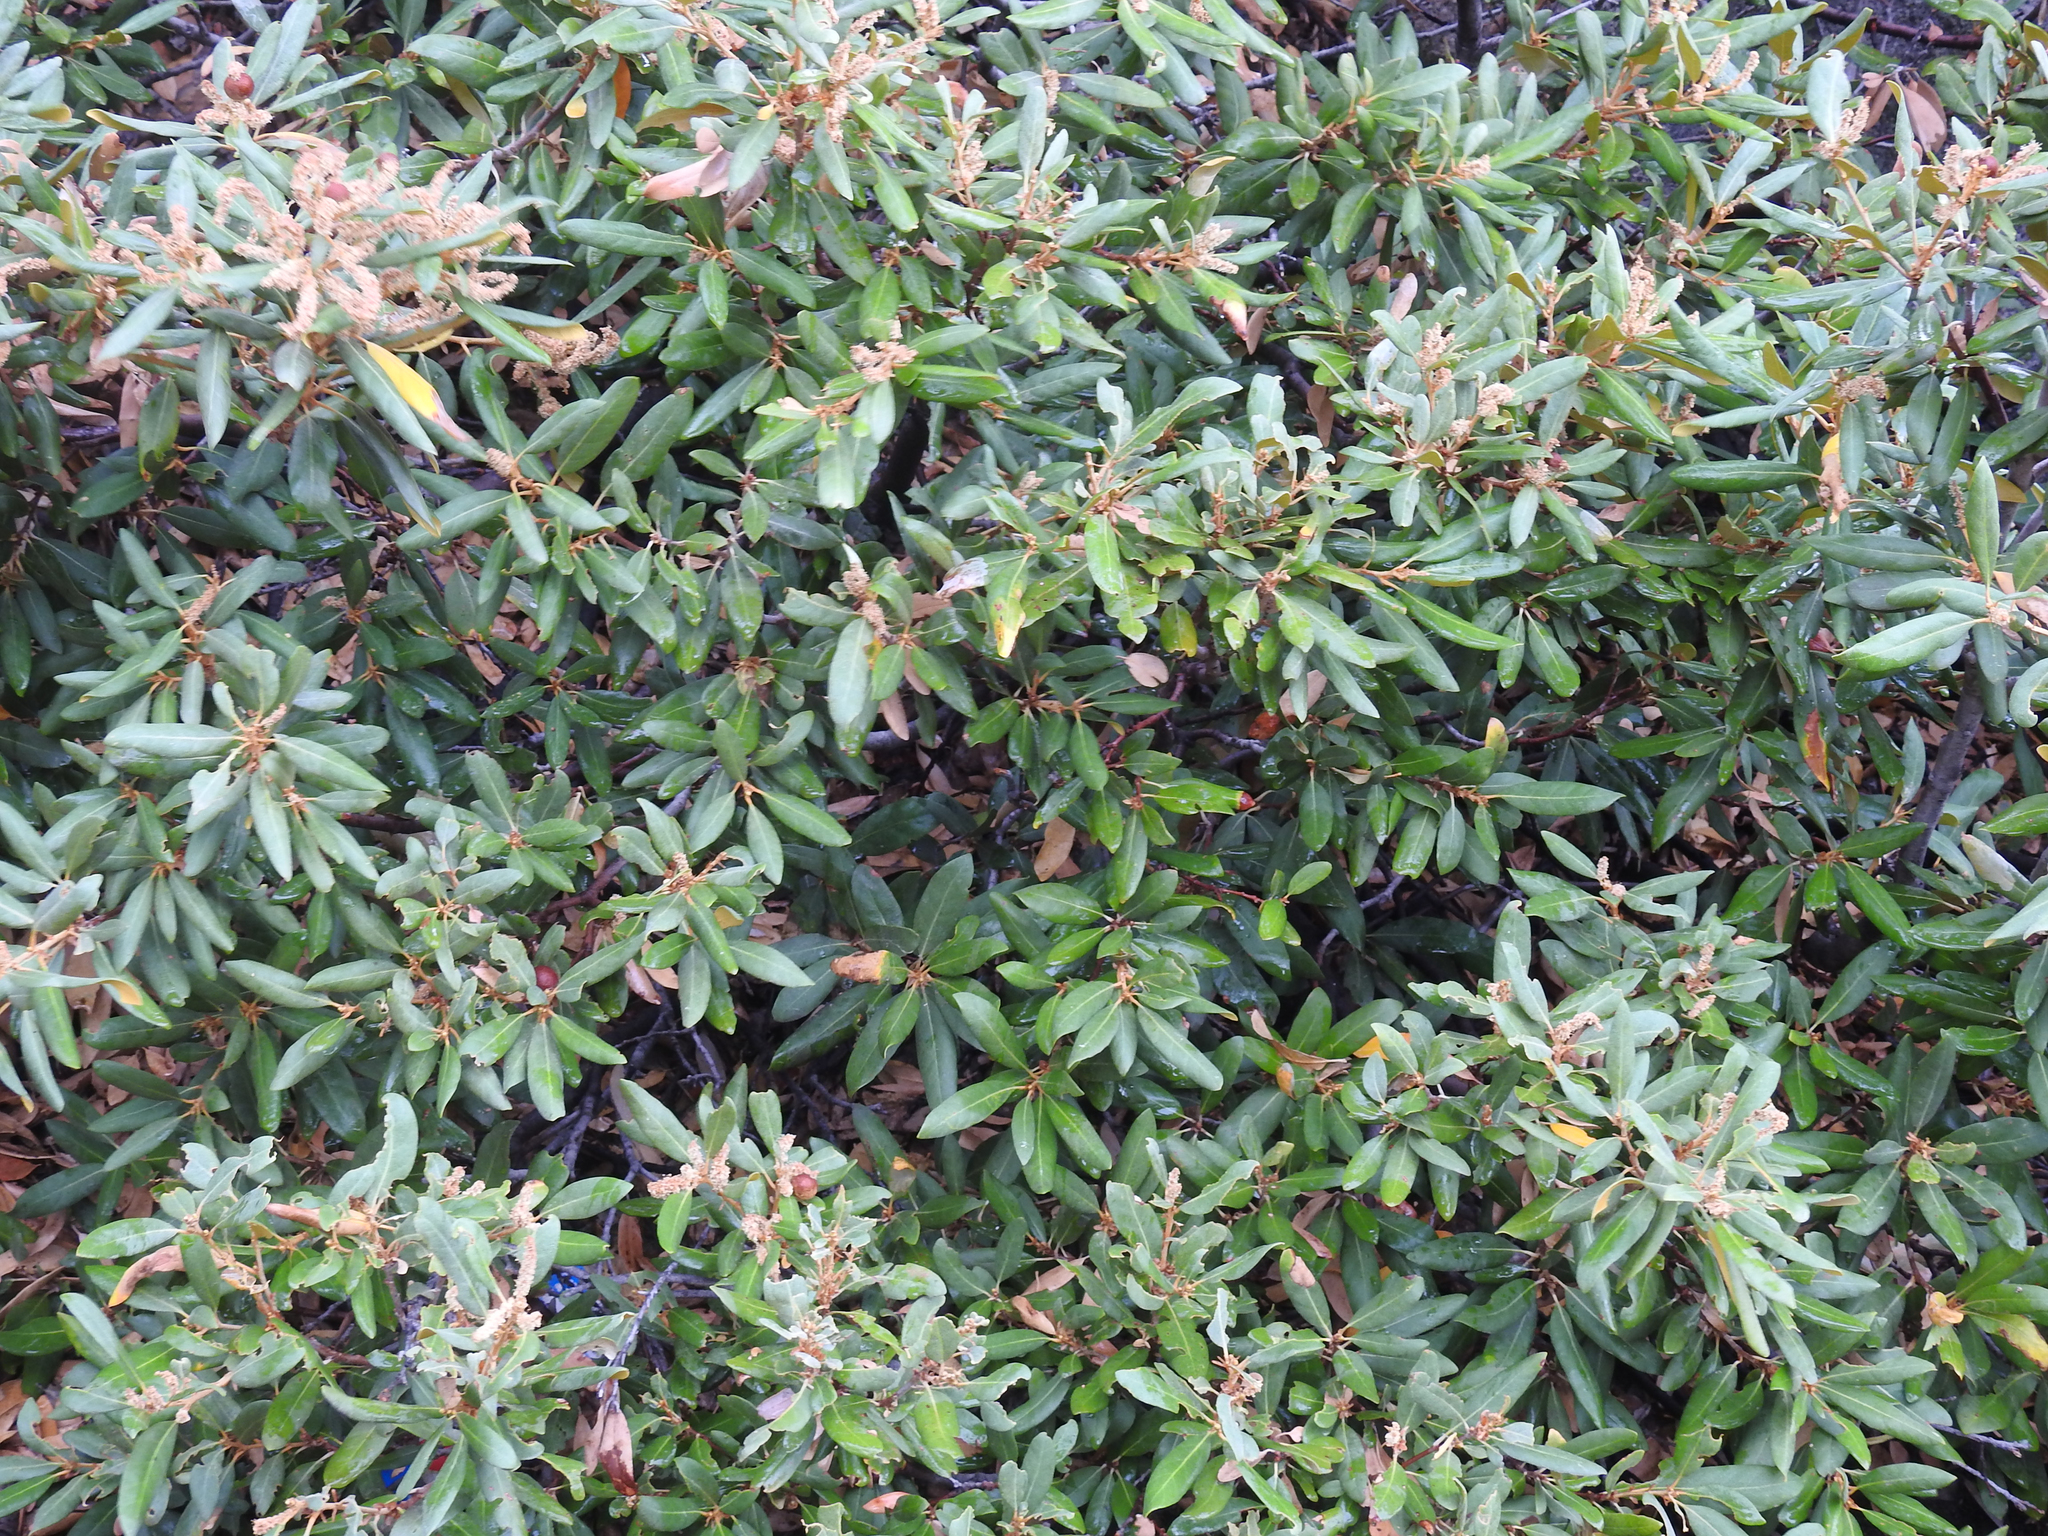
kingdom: Plantae
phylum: Tracheophyta
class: Magnoliopsida
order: Fagales
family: Fagaceae
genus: Chrysolepis
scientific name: Chrysolepis sempervirens
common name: Bush chinquapin
